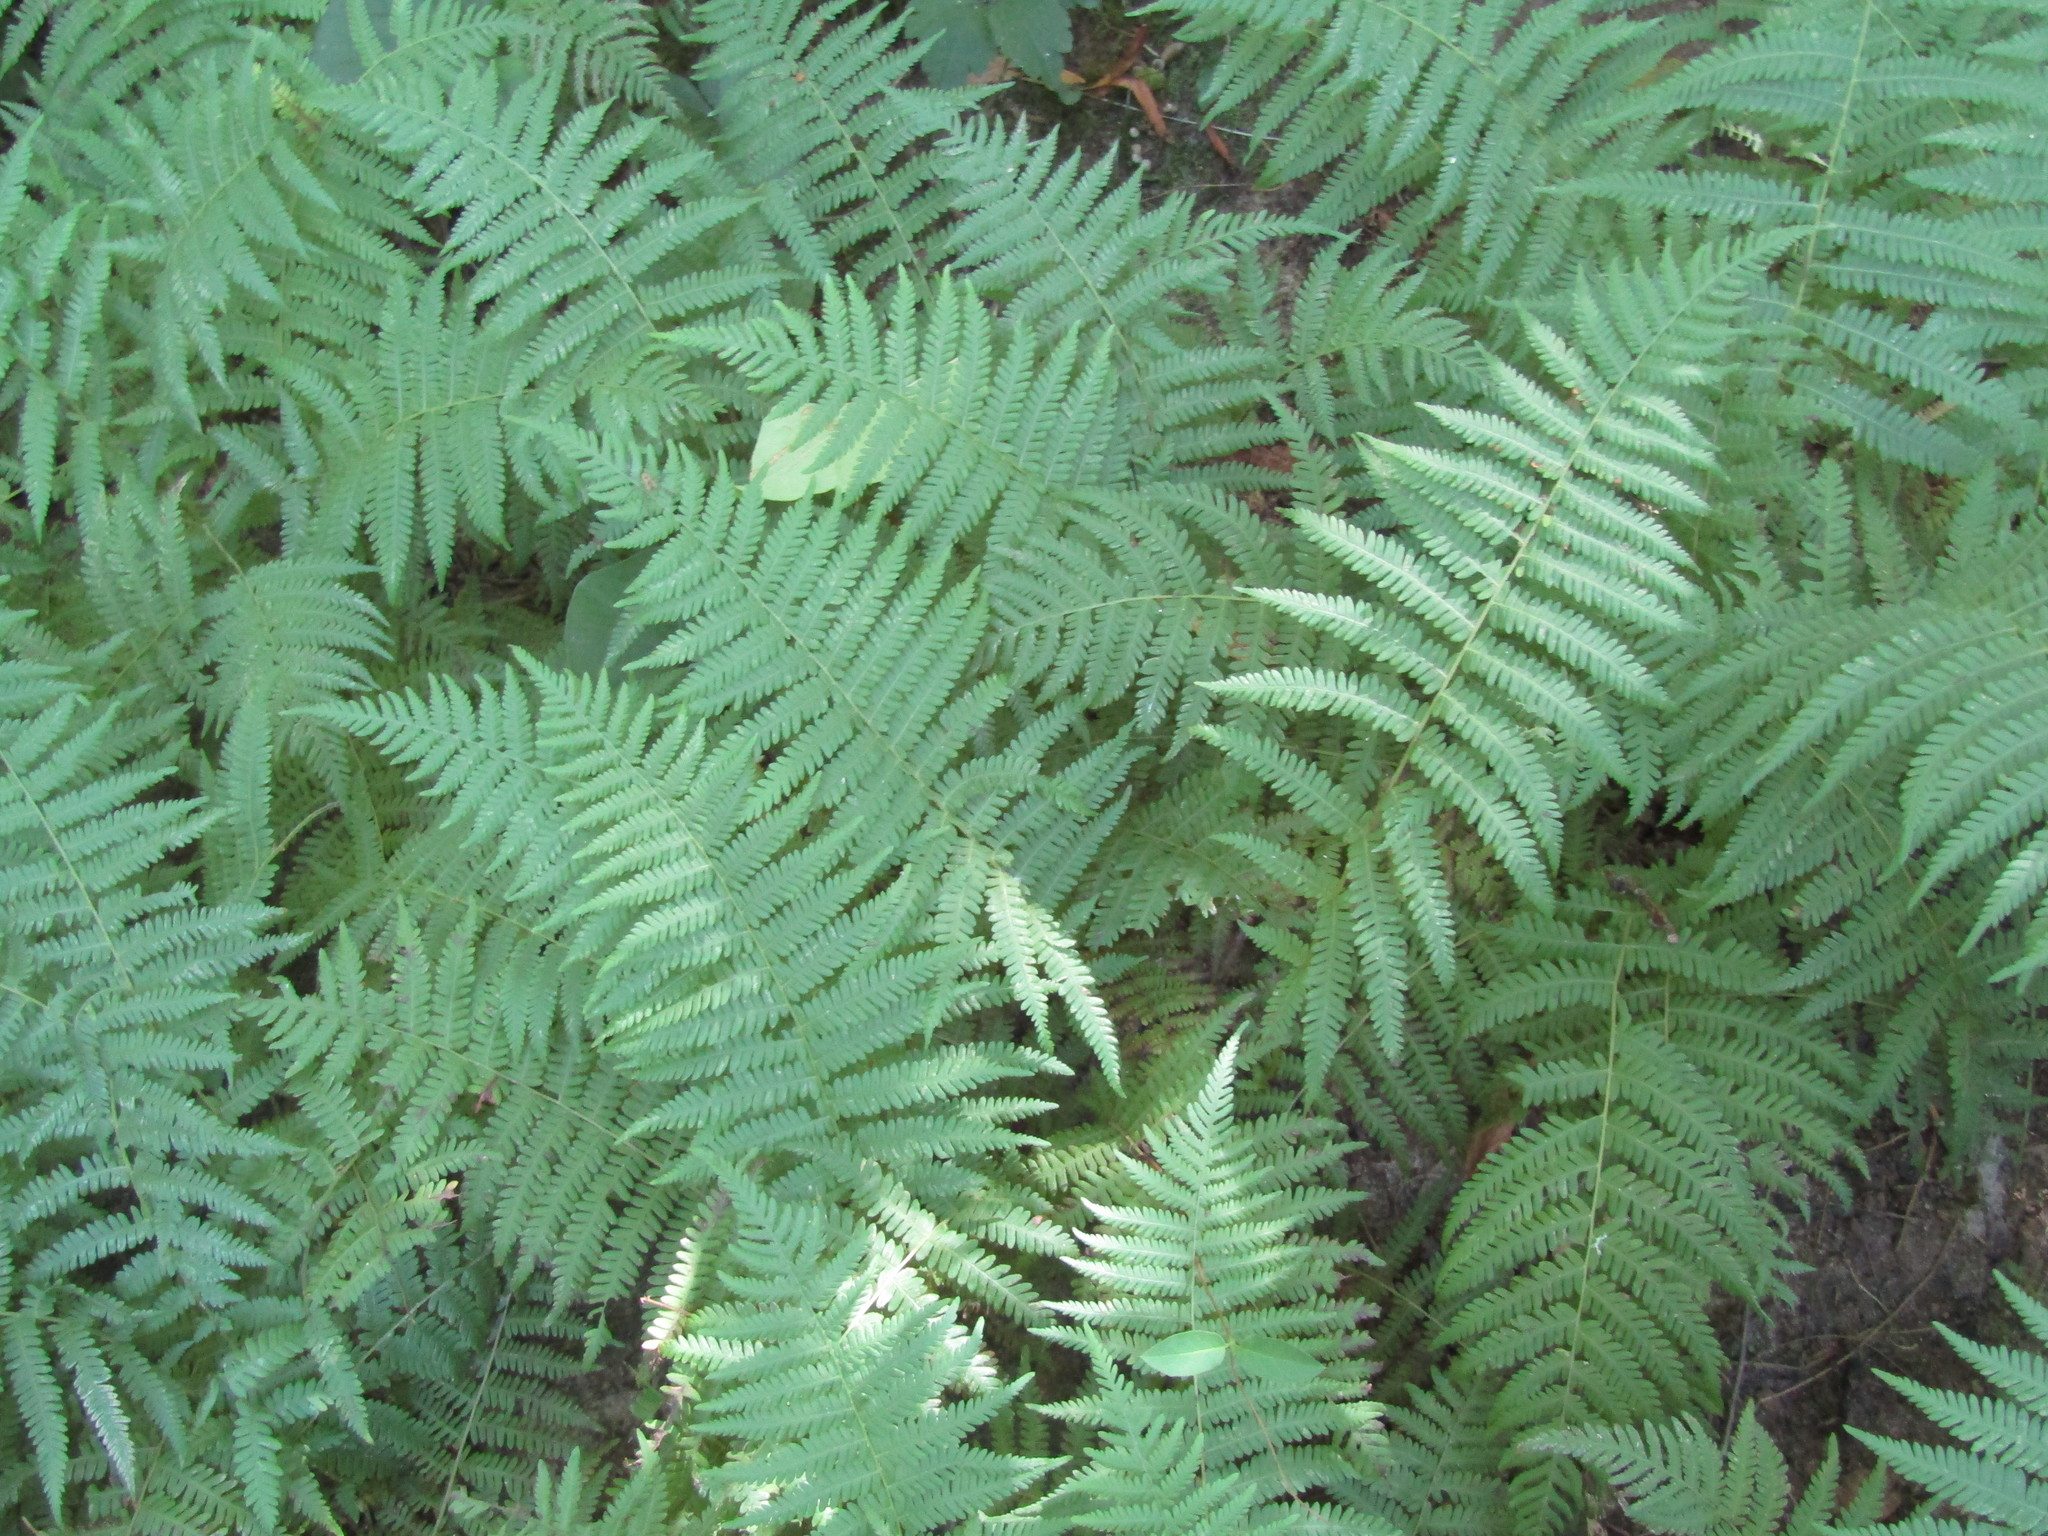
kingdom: Plantae
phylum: Tracheophyta
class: Polypodiopsida
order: Polypodiales
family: Thelypteridaceae
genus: Amauropelta
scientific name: Amauropelta noveboracensis
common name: New york fern
